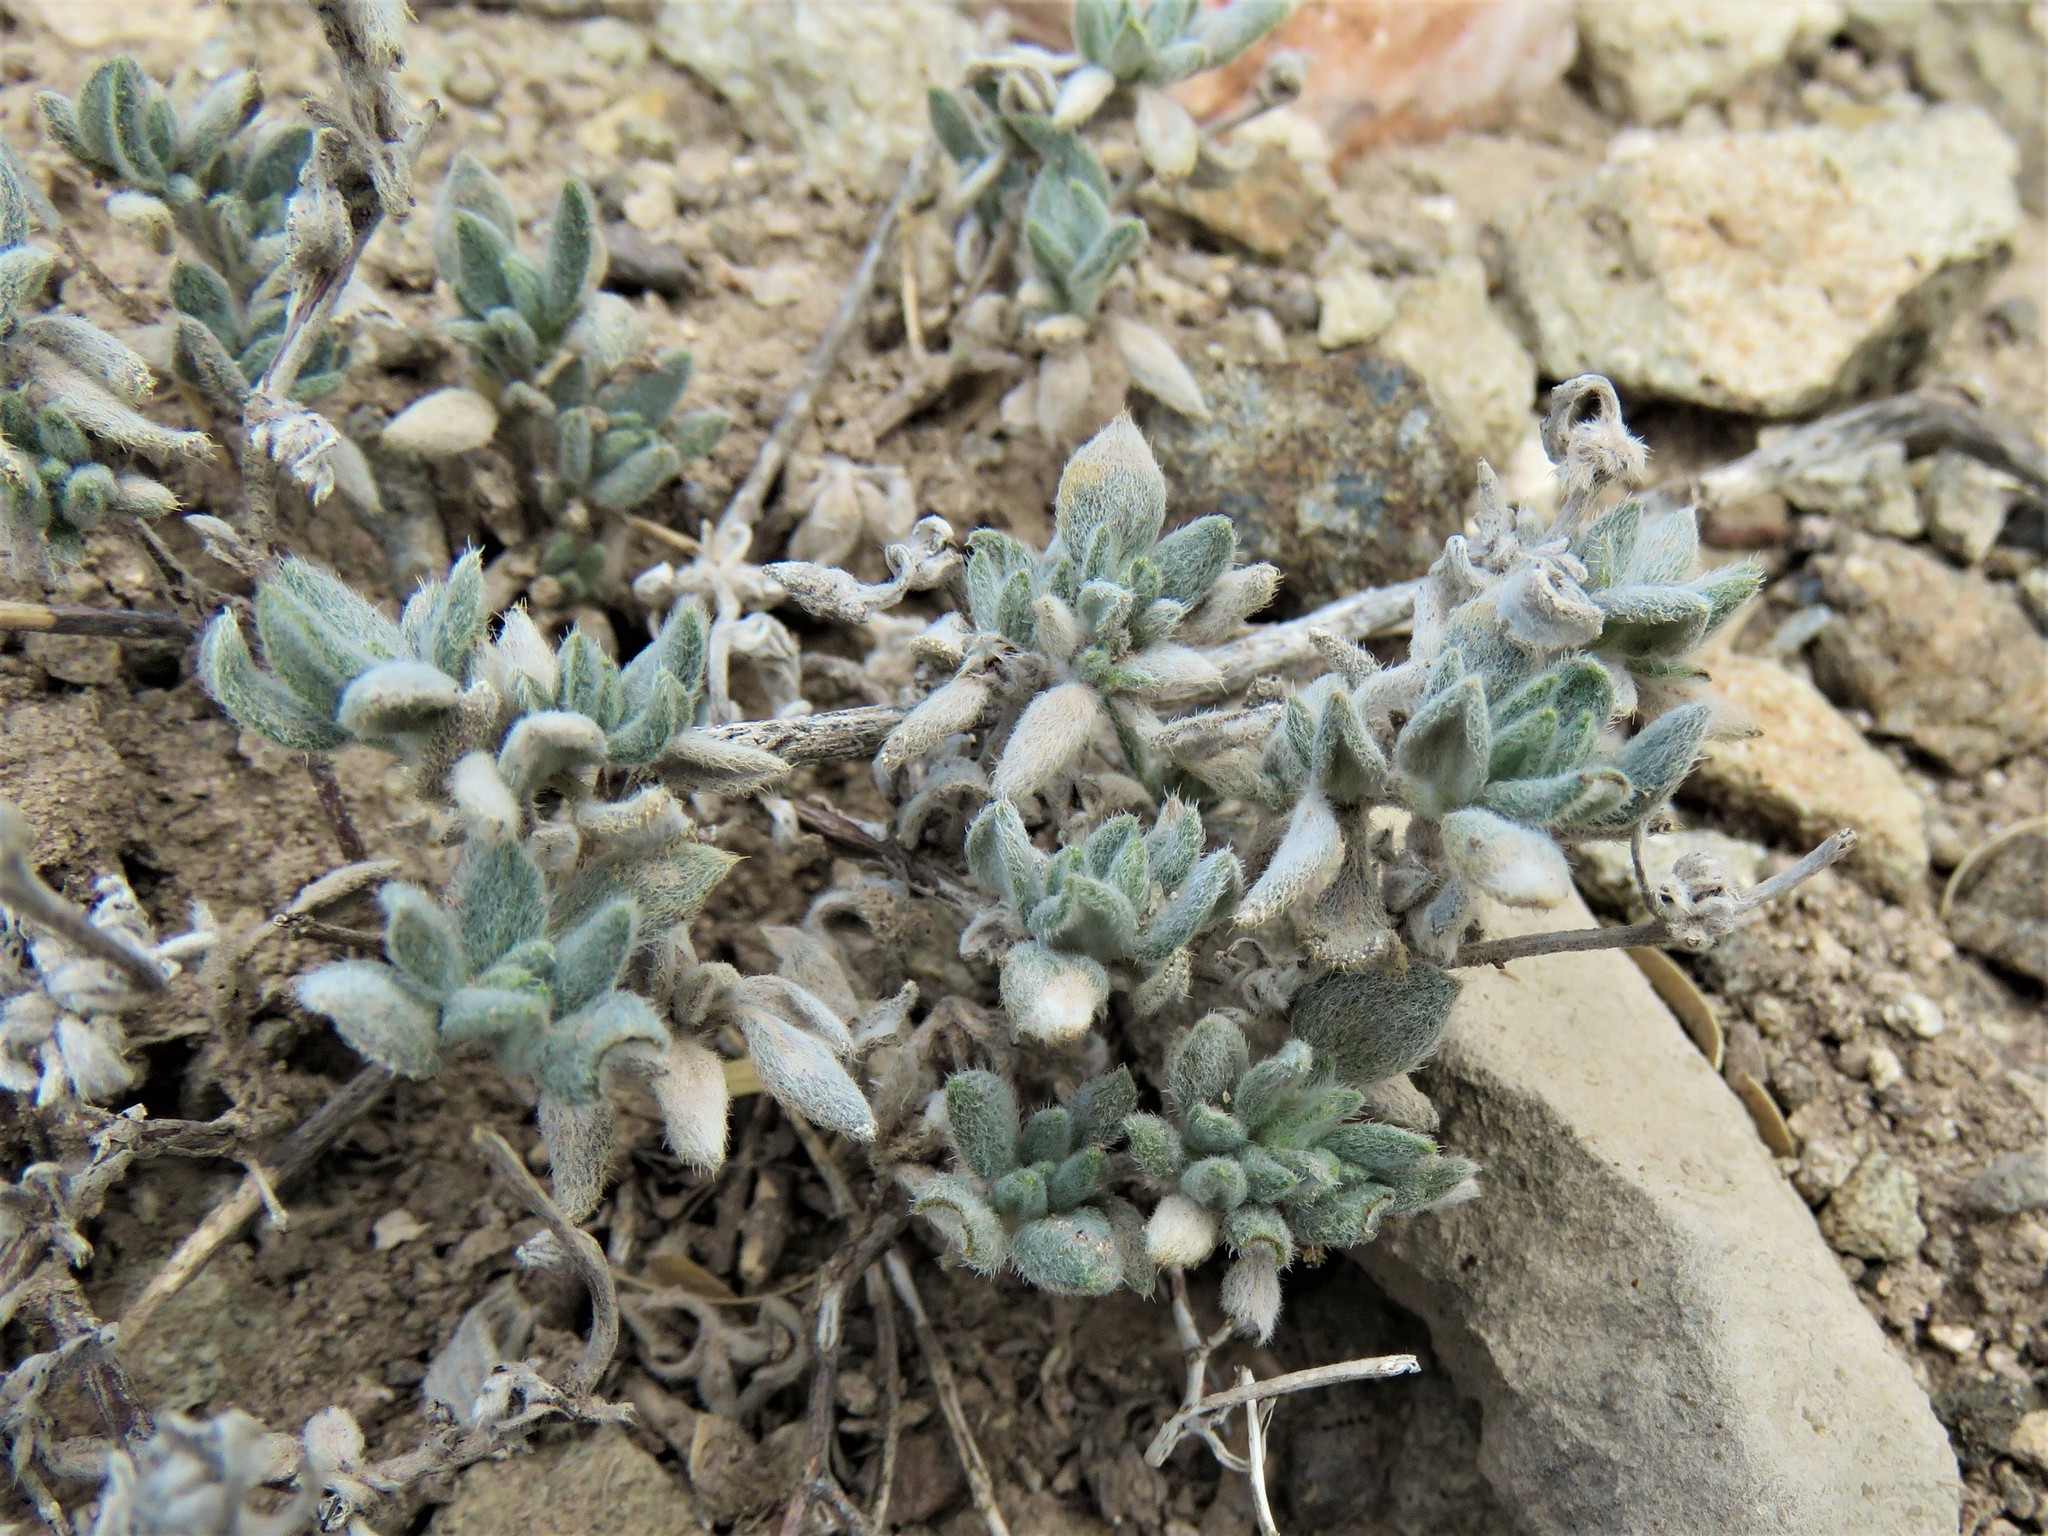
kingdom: Plantae
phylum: Tracheophyta
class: Magnoliopsida
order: Boraginales
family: Ehretiaceae
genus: Tiquilia
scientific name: Tiquilia canescens
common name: Hairy tiquilia
